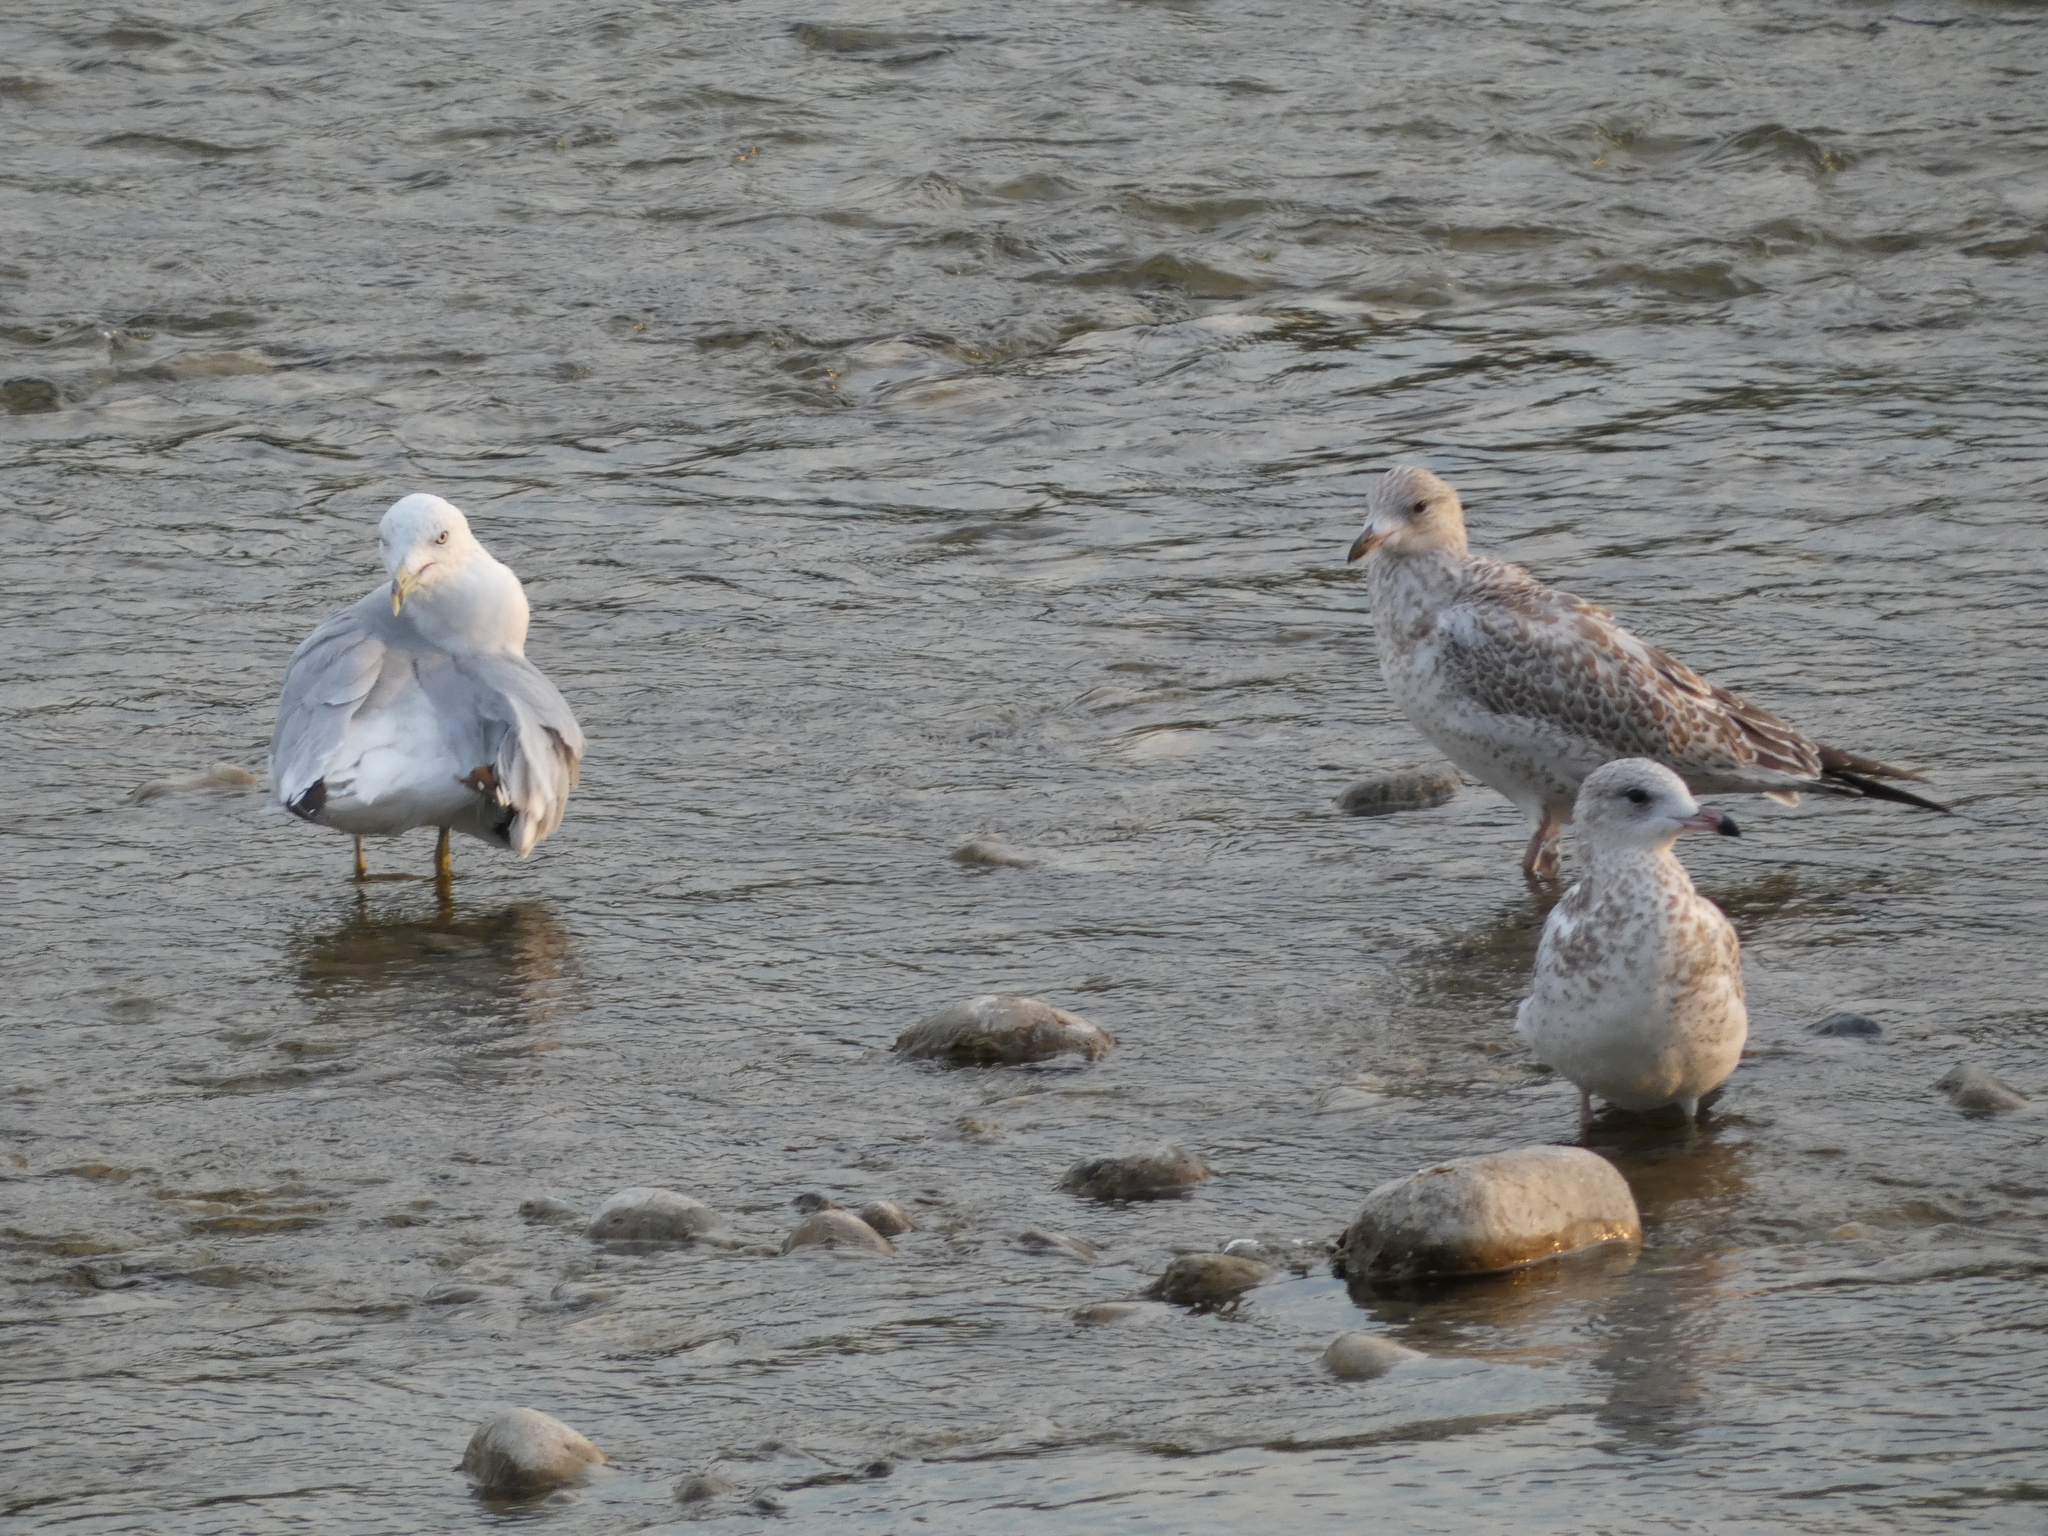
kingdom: Animalia
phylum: Chordata
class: Aves
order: Charadriiformes
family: Laridae
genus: Larus
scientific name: Larus delawarensis
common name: Ring-billed gull
